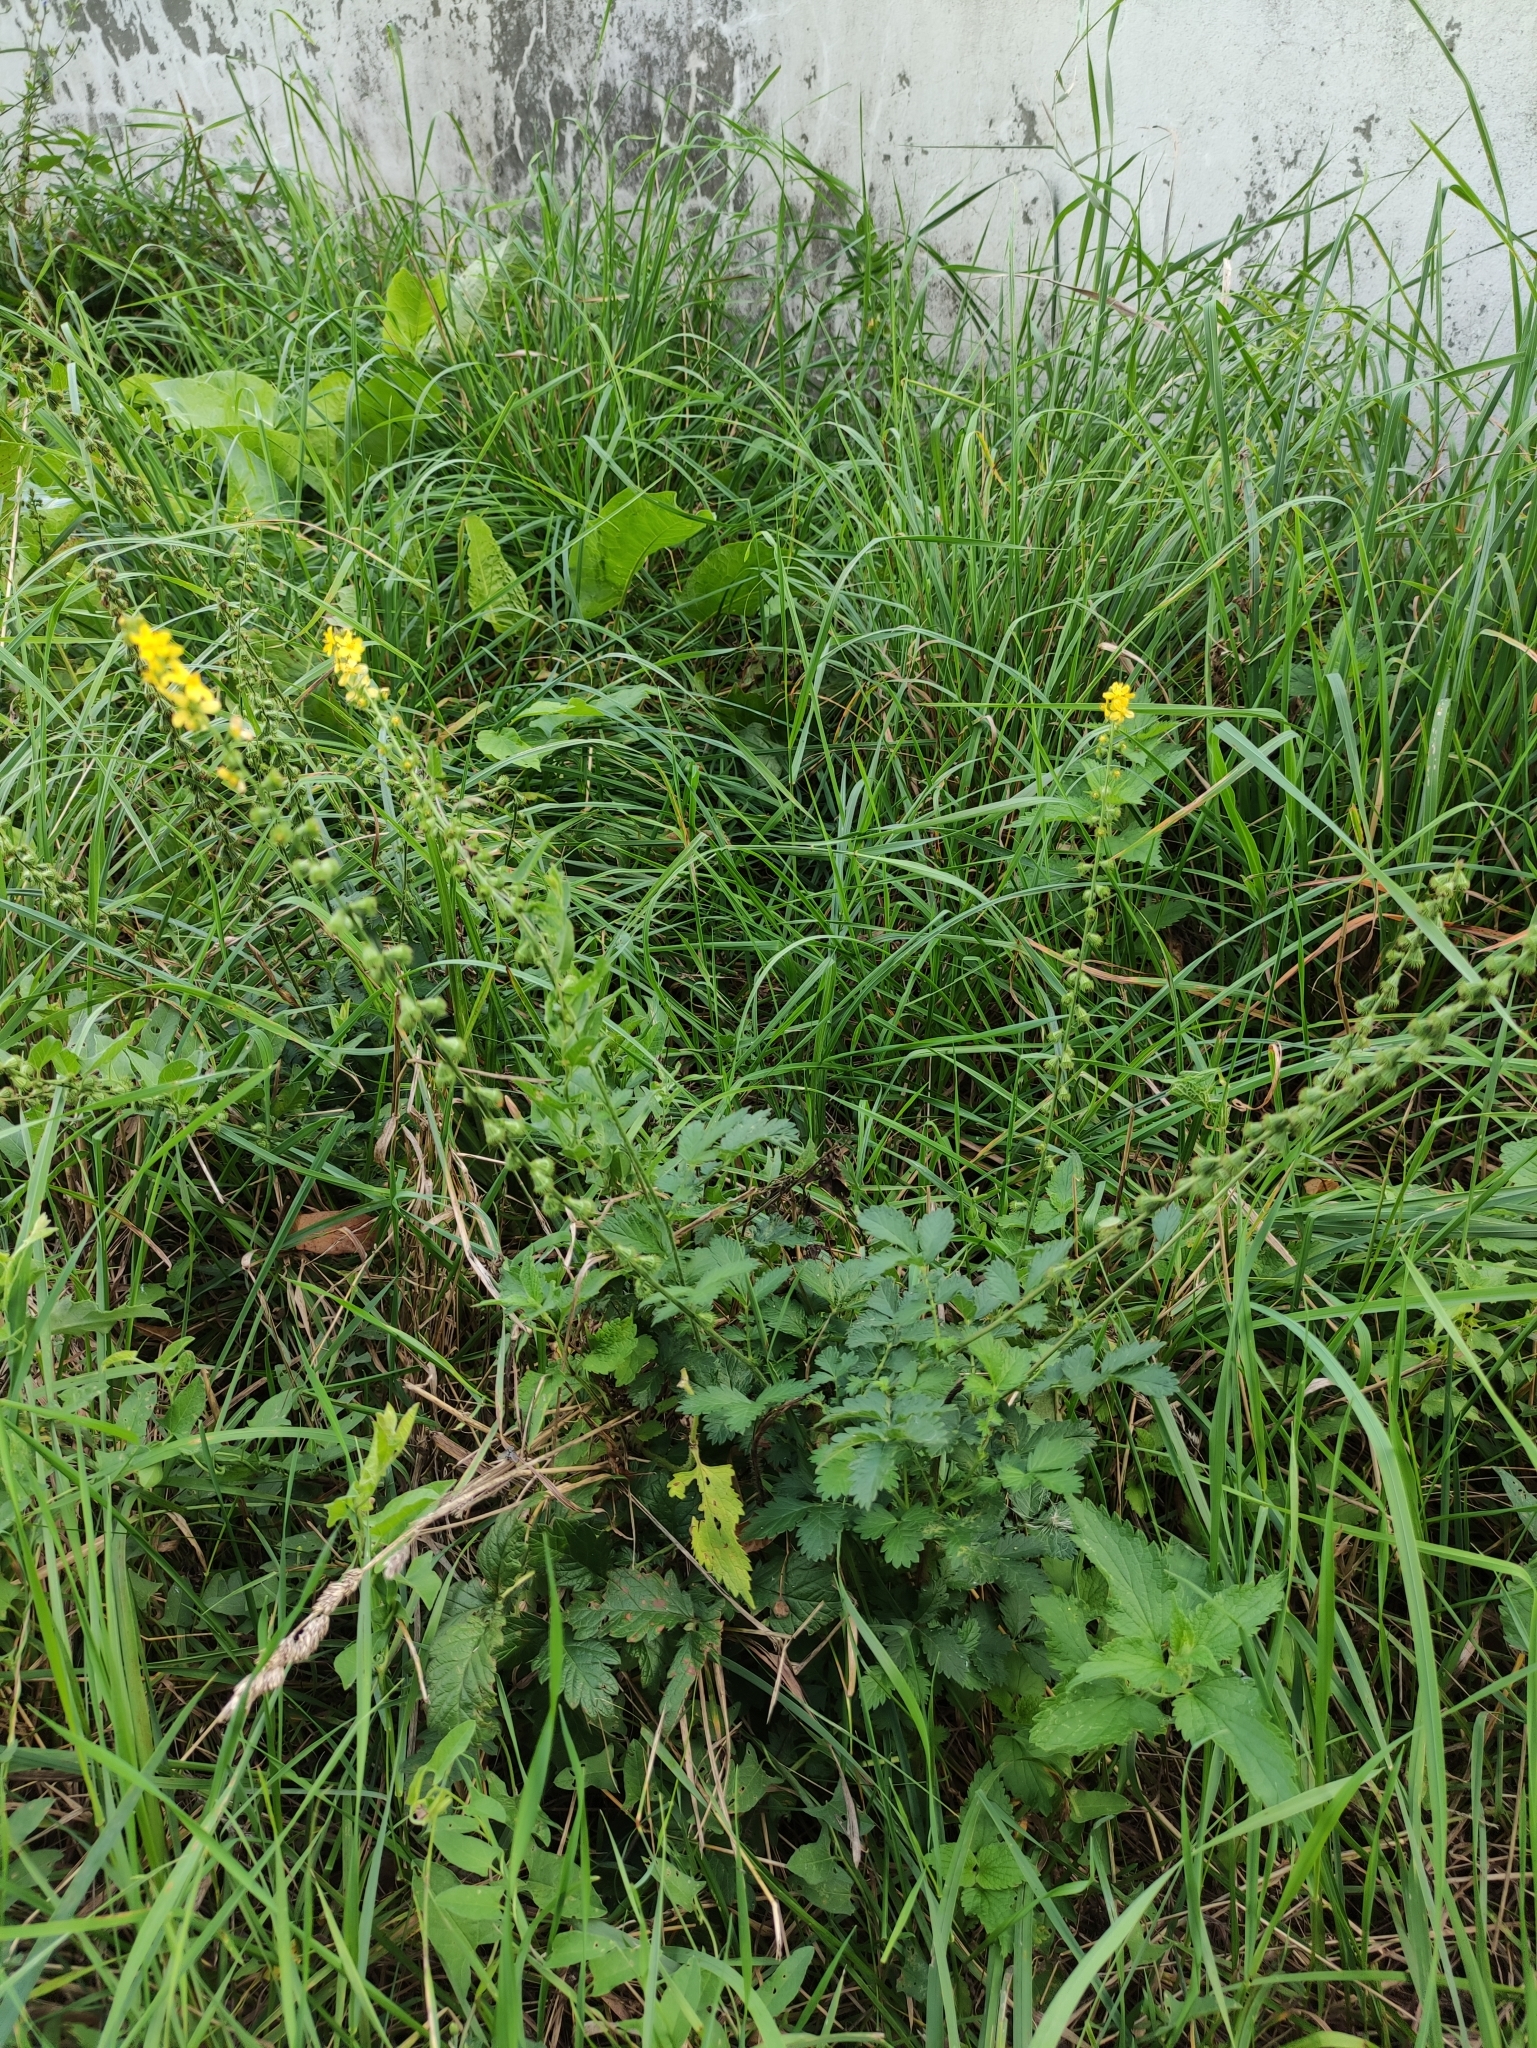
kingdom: Plantae
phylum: Tracheophyta
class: Magnoliopsida
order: Rosales
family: Rosaceae
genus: Agrimonia
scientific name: Agrimonia eupatoria
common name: Agrimony
